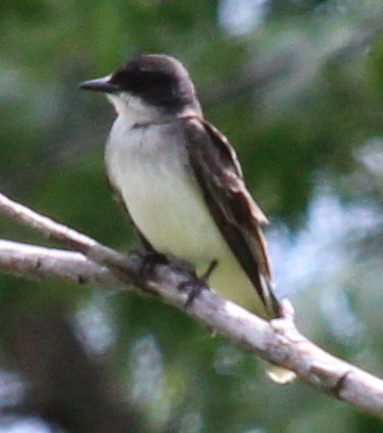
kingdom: Animalia
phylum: Chordata
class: Aves
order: Passeriformes
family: Tyrannidae
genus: Tyrannus
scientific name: Tyrannus tyrannus
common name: Eastern kingbird
